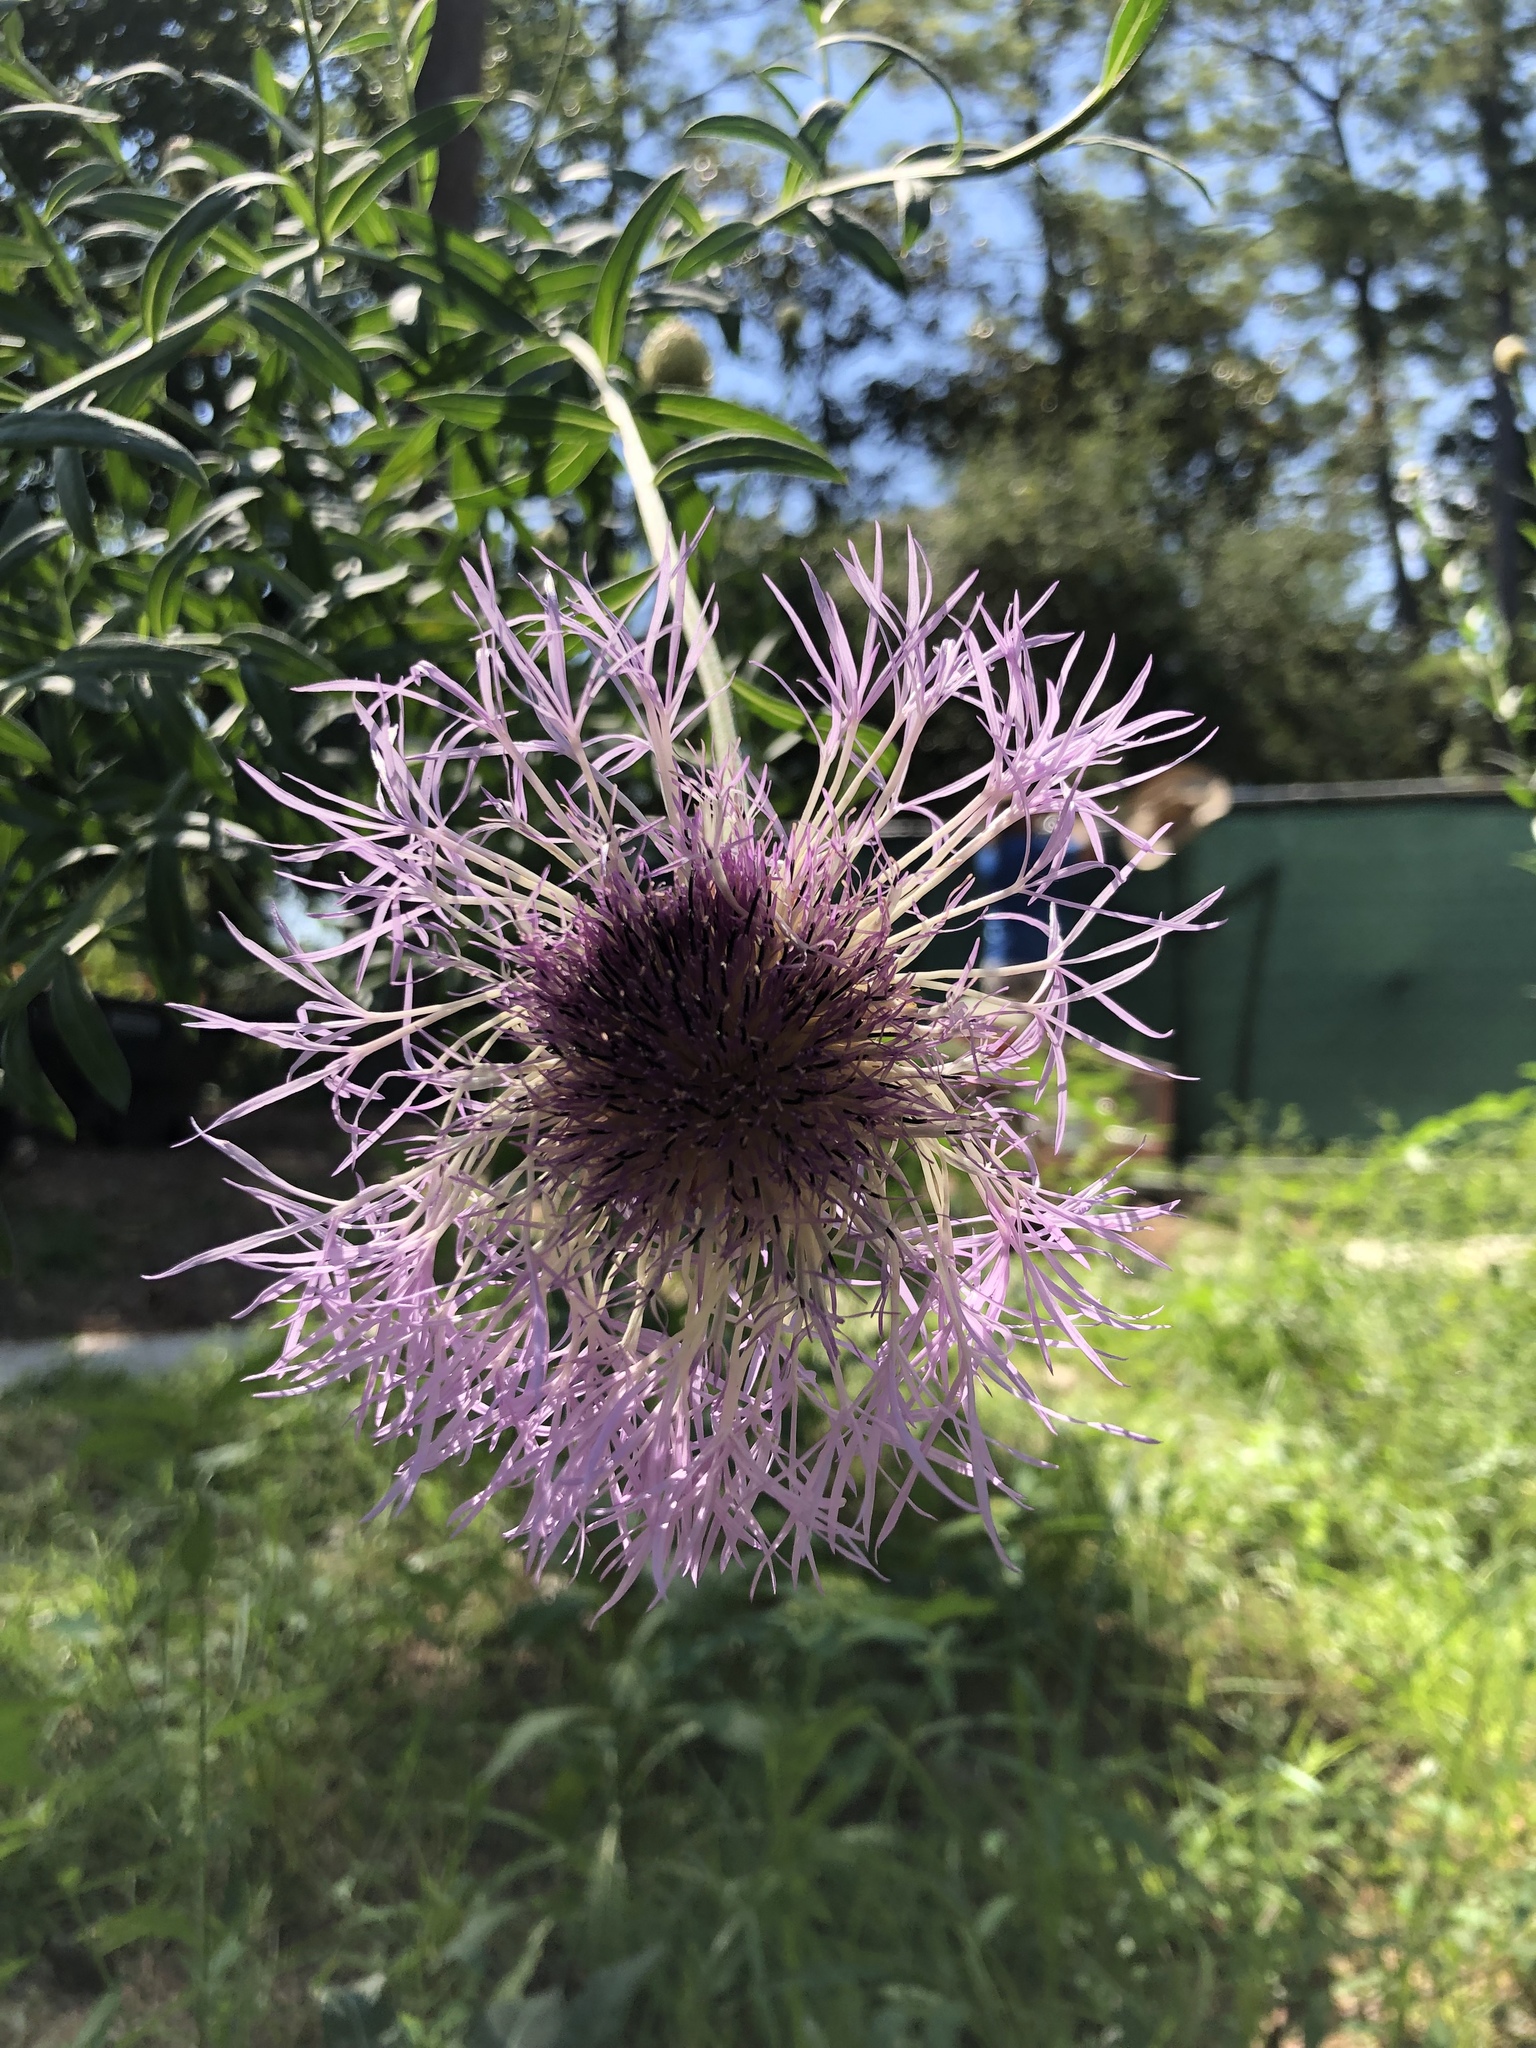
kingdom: Plantae
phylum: Tracheophyta
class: Magnoliopsida
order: Asterales
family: Asteraceae
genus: Plectocephalus
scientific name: Plectocephalus americanus
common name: American basket-flower
